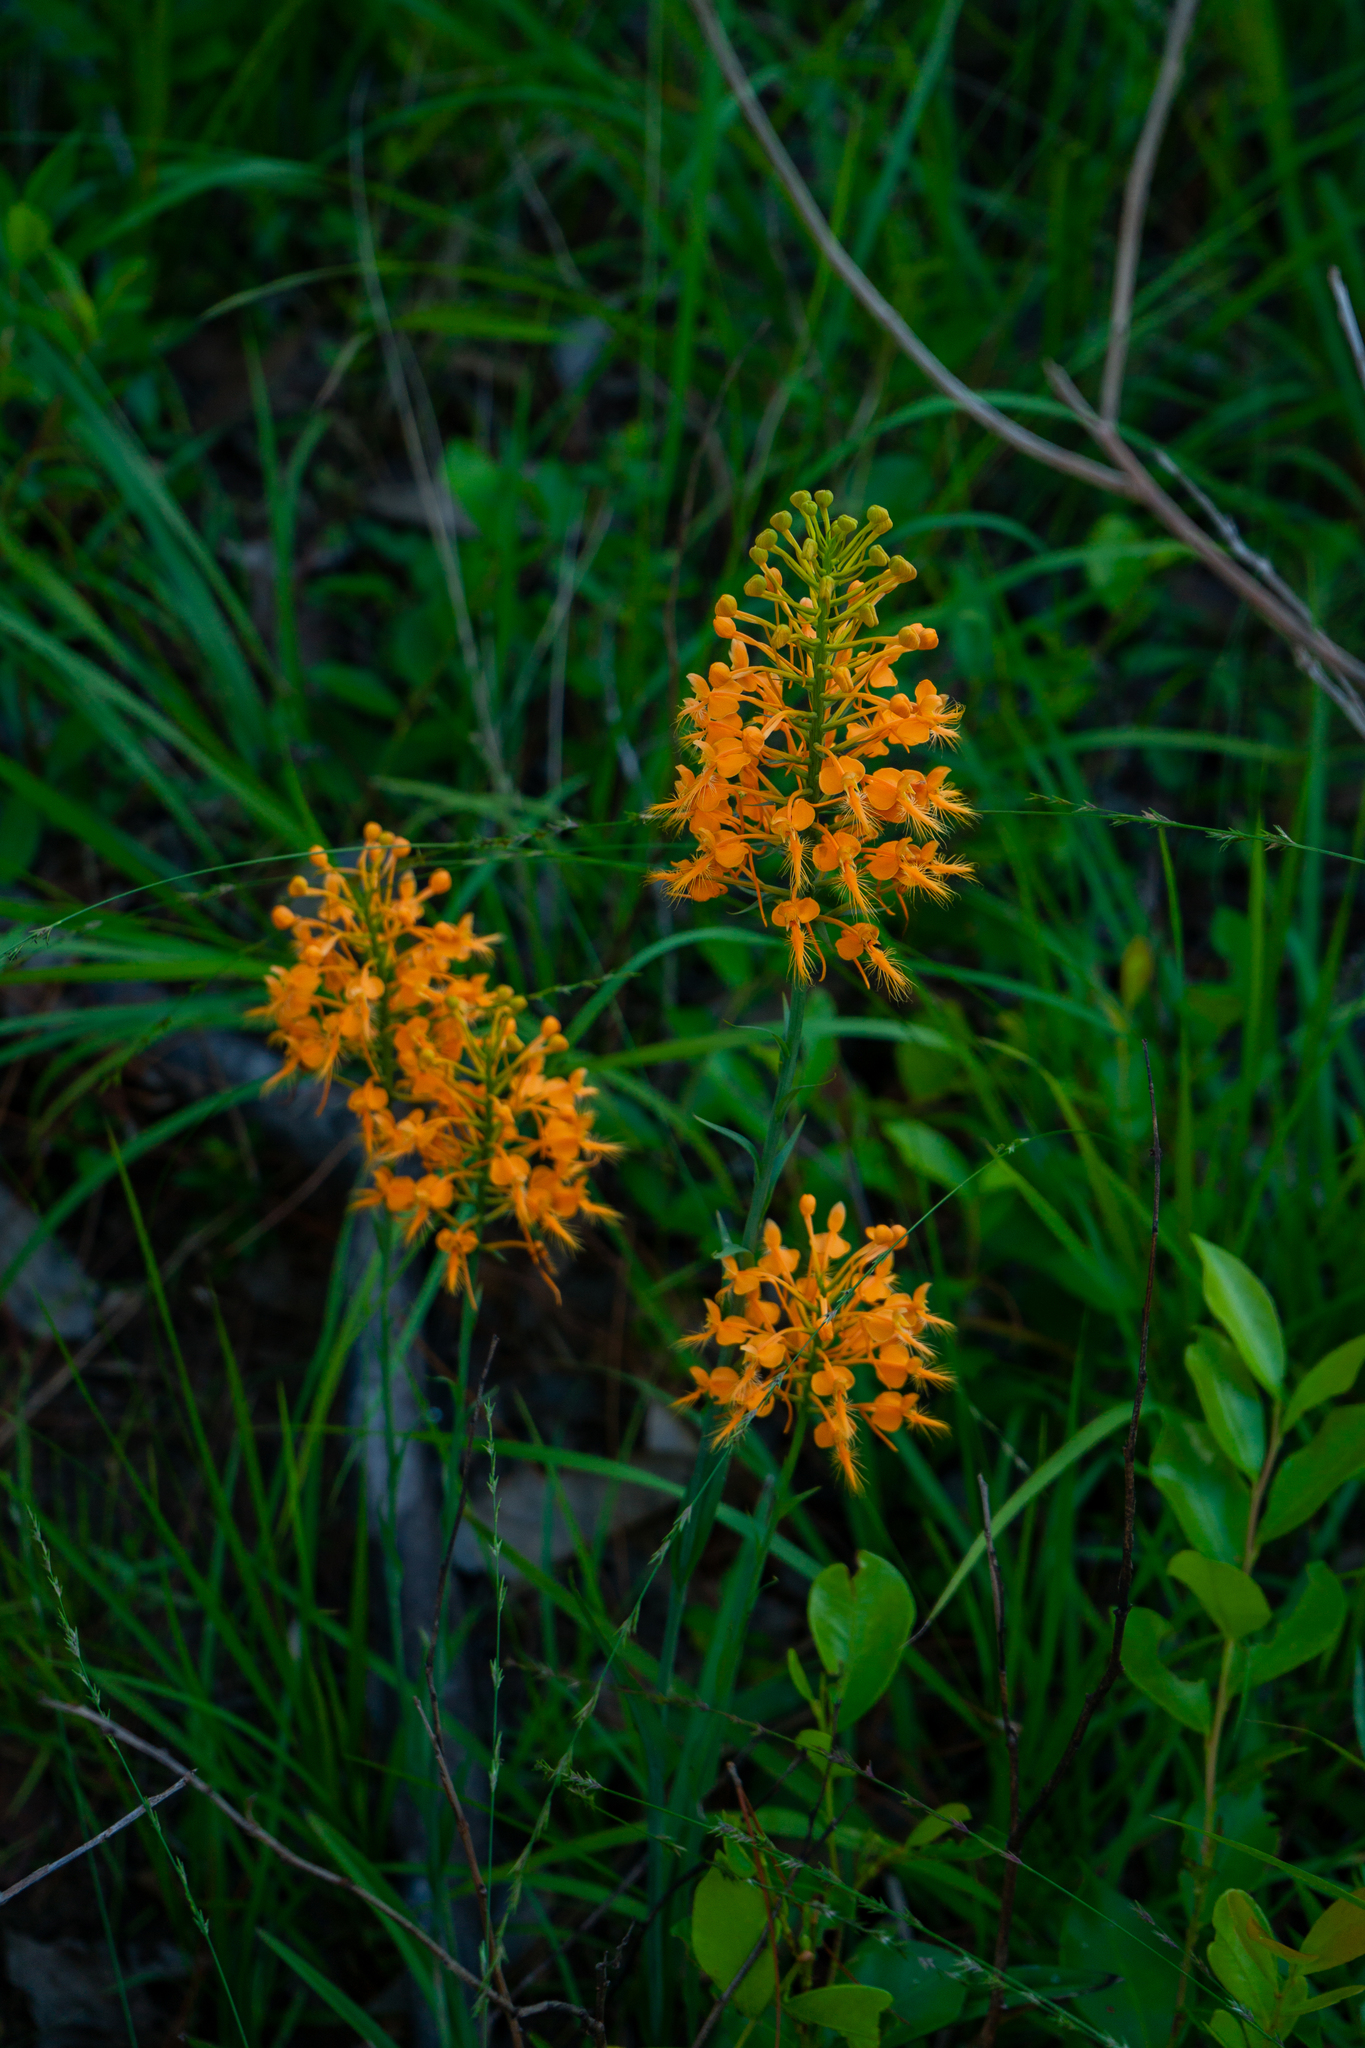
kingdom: Plantae
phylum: Tracheophyta
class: Liliopsida
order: Asparagales
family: Orchidaceae
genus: Platanthera
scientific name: Platanthera ciliaris
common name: Yellow fringed orchid
